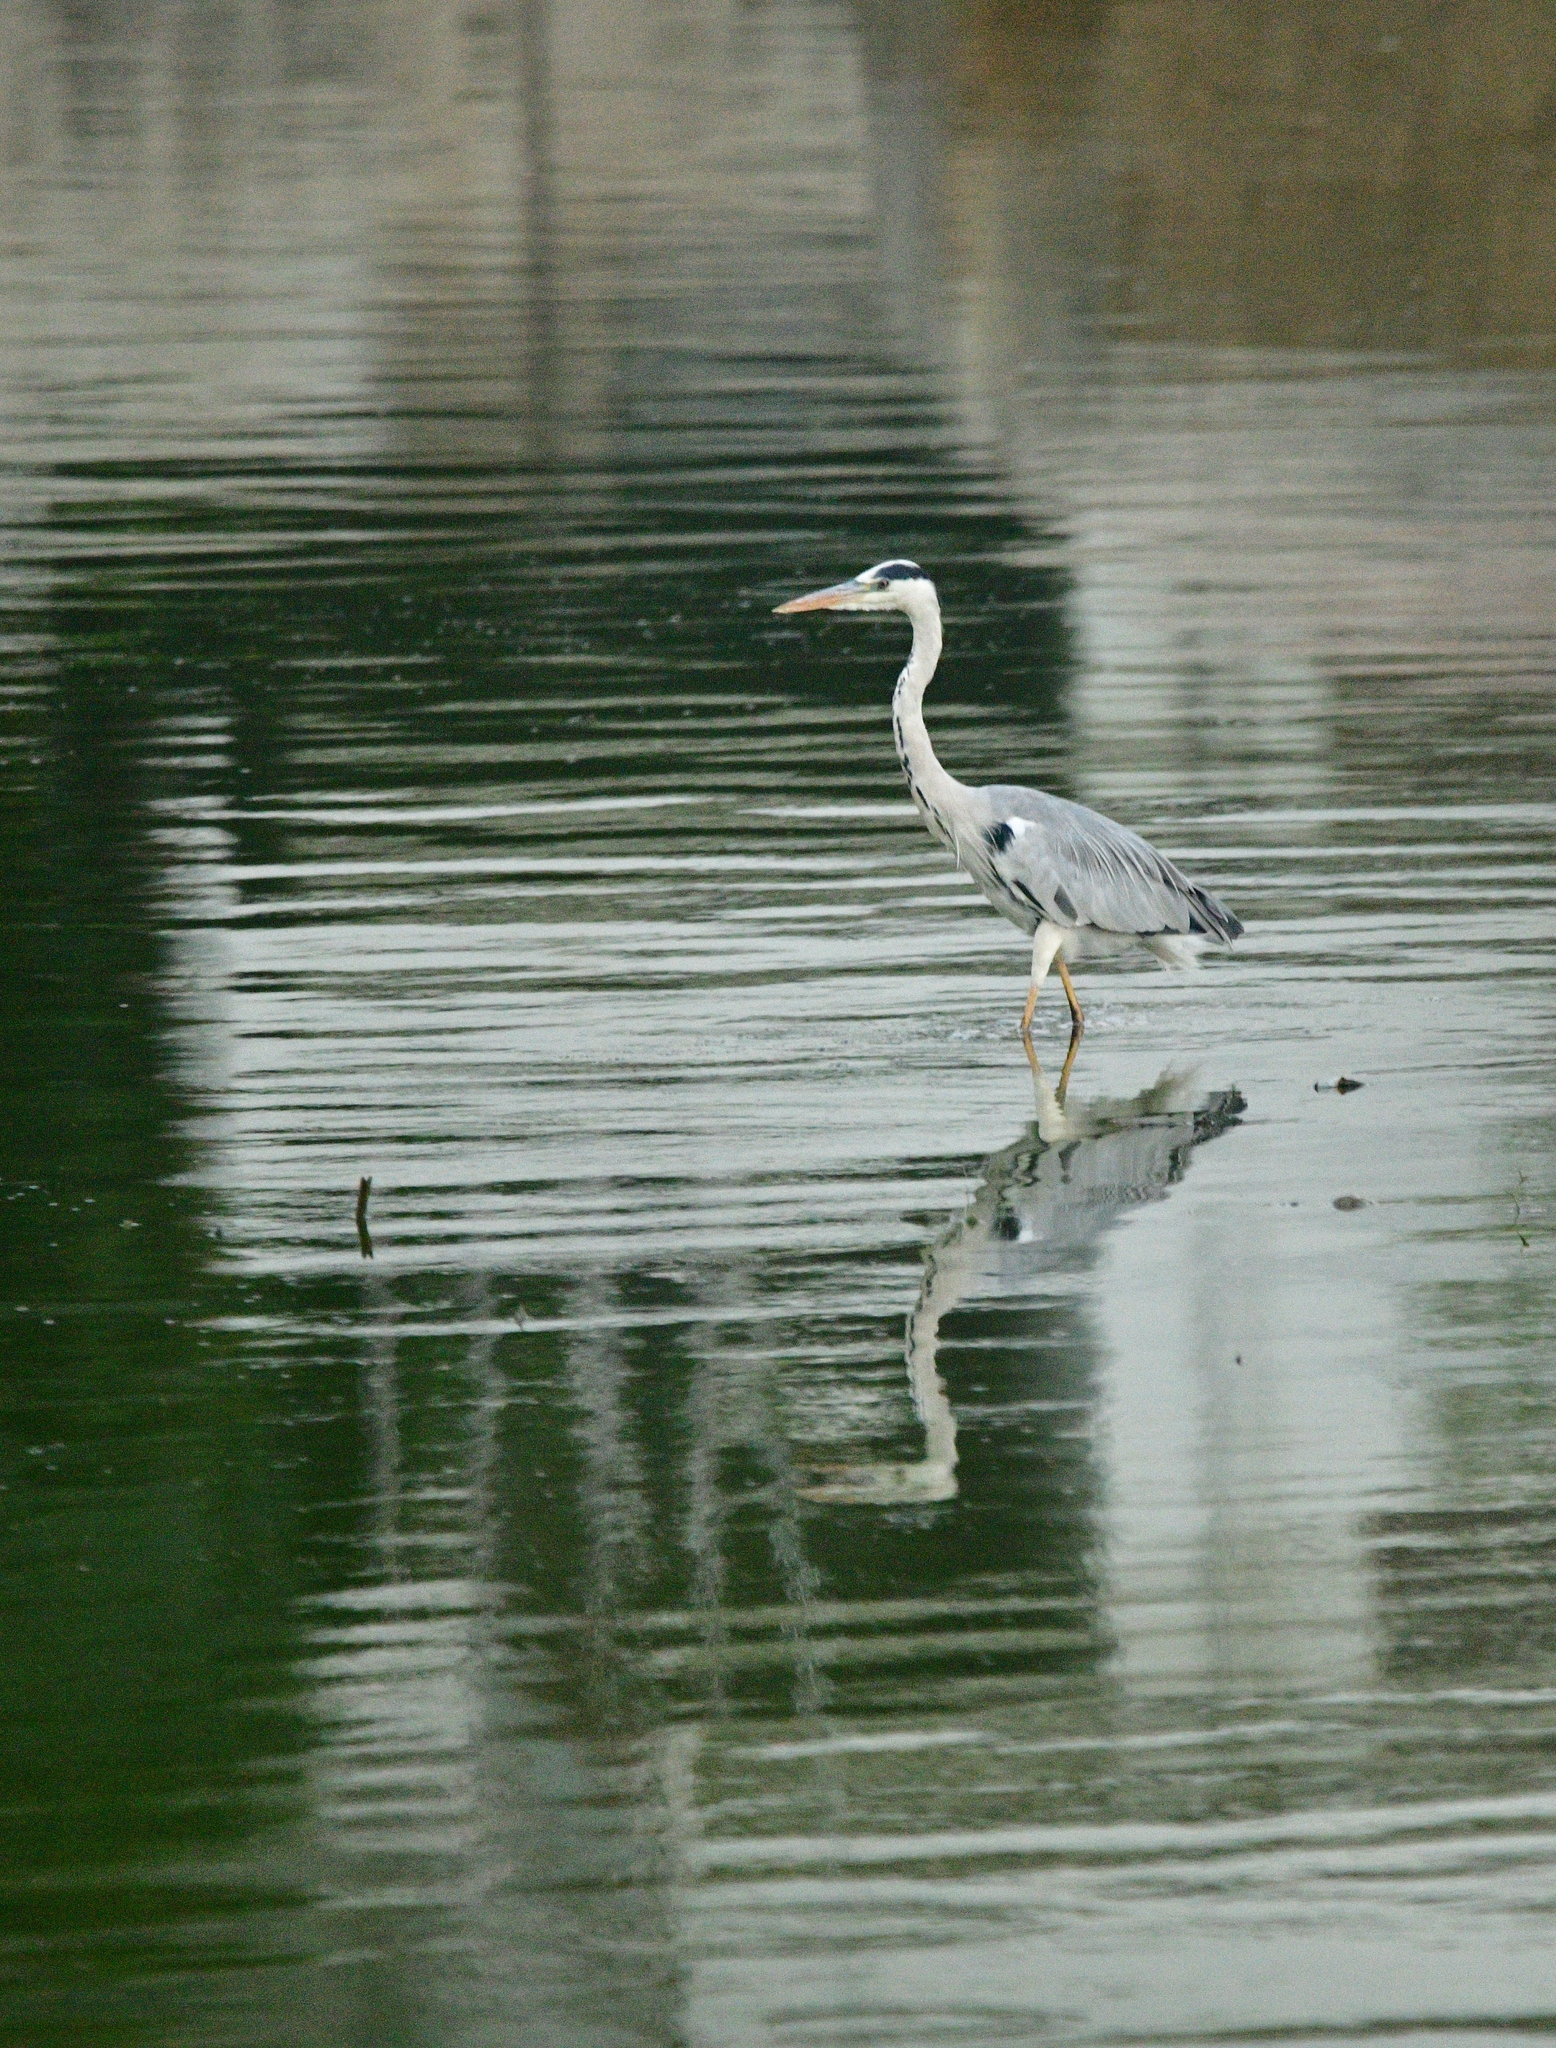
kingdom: Animalia
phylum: Chordata
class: Aves
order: Pelecaniformes
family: Ardeidae
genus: Ardea
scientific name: Ardea cinerea
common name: Grey heron
